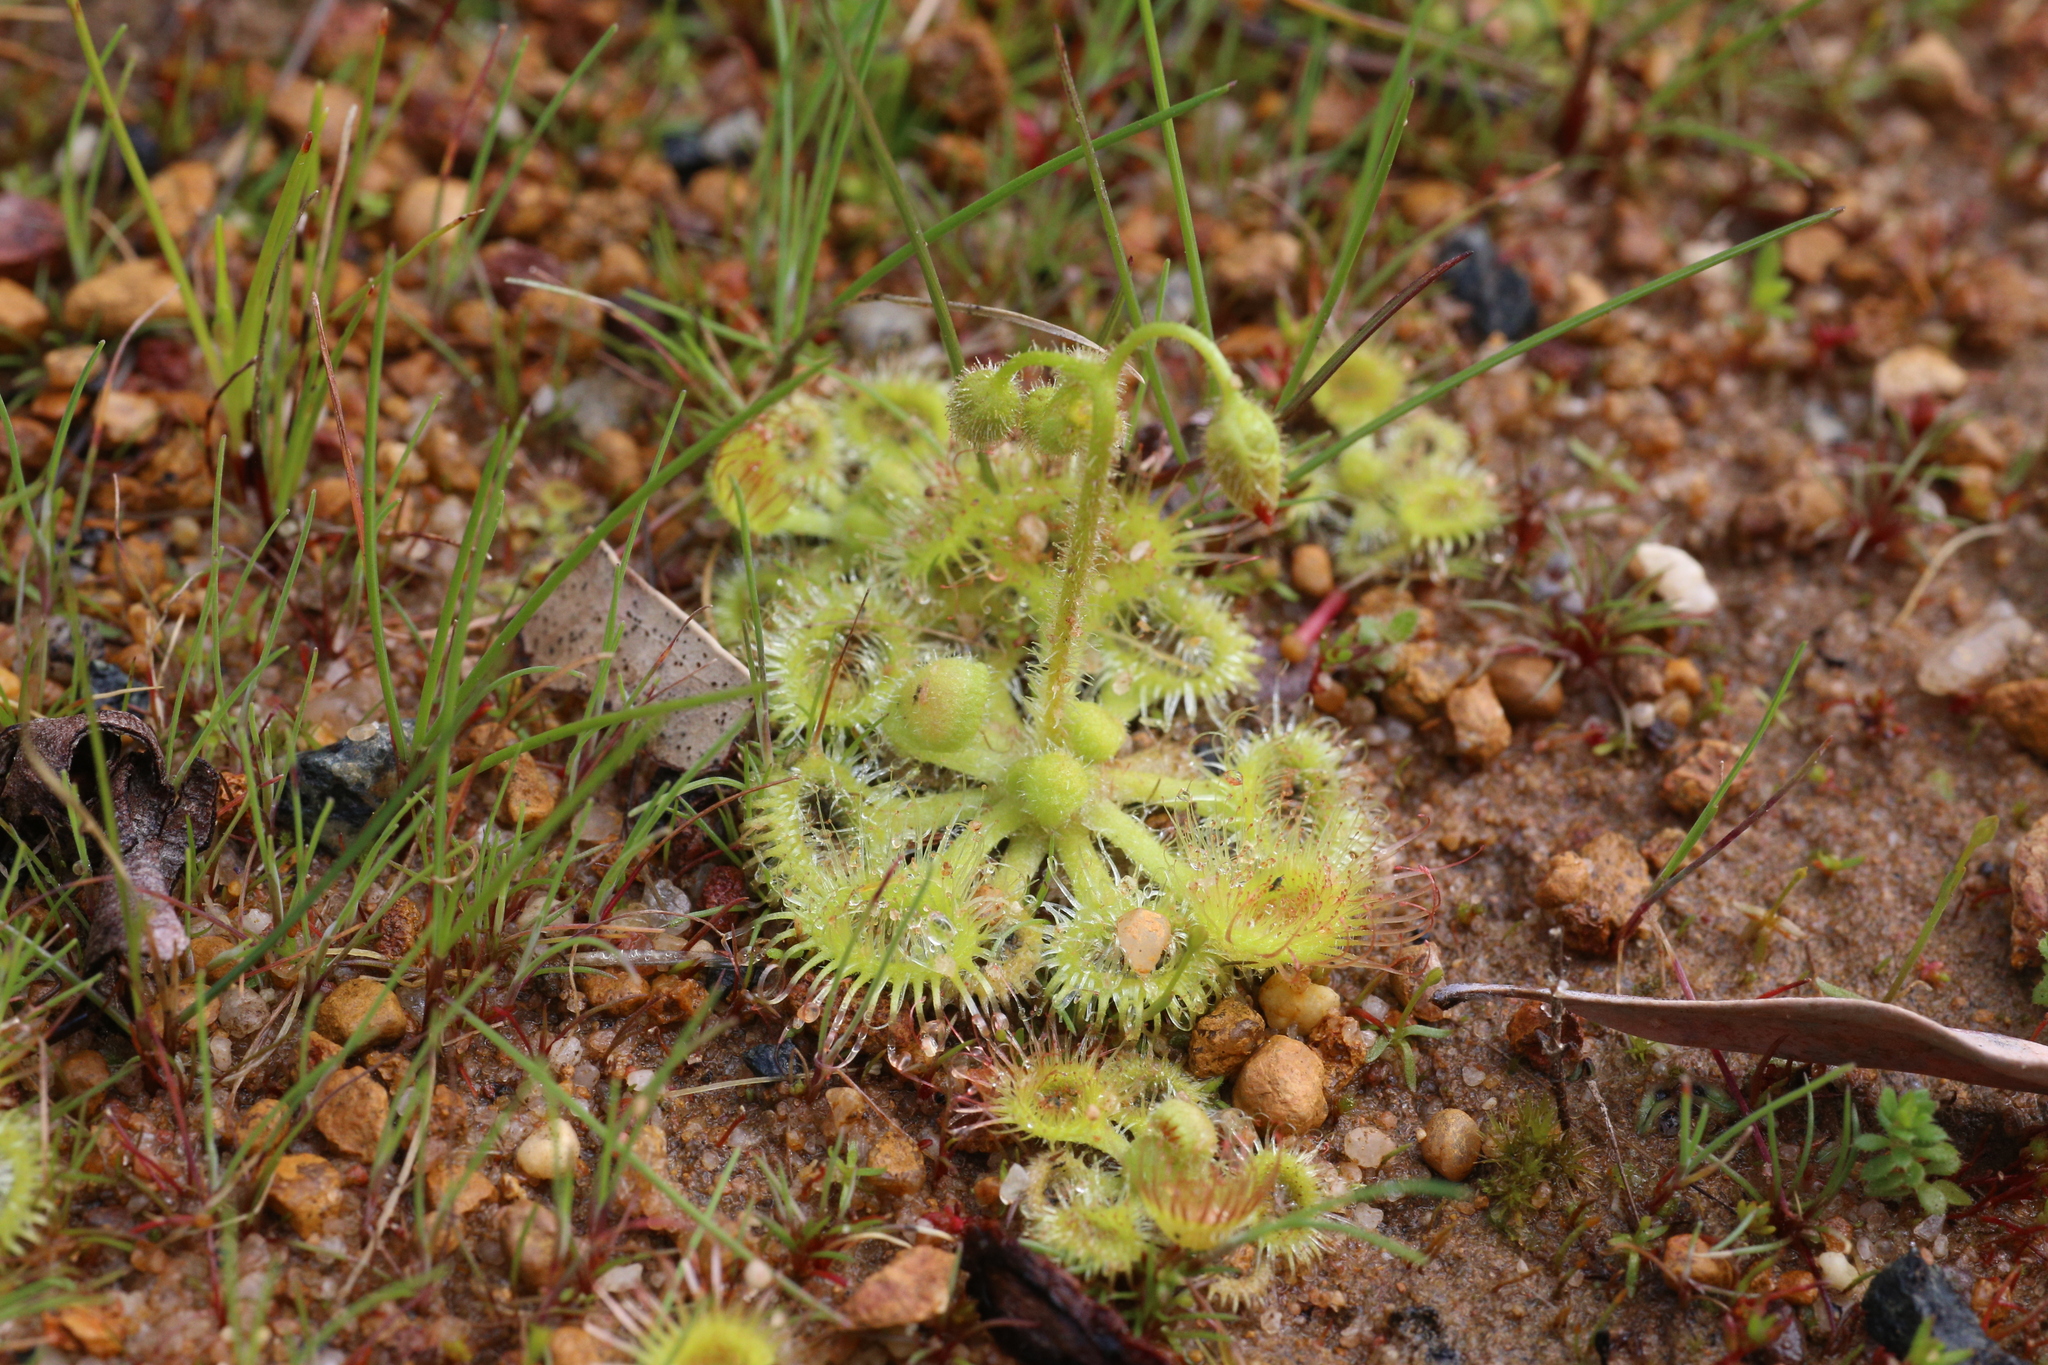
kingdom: Plantae
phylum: Tracheophyta
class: Magnoliopsida
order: Caryophyllales
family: Droseraceae
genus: Drosera
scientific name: Drosera glanduligera
